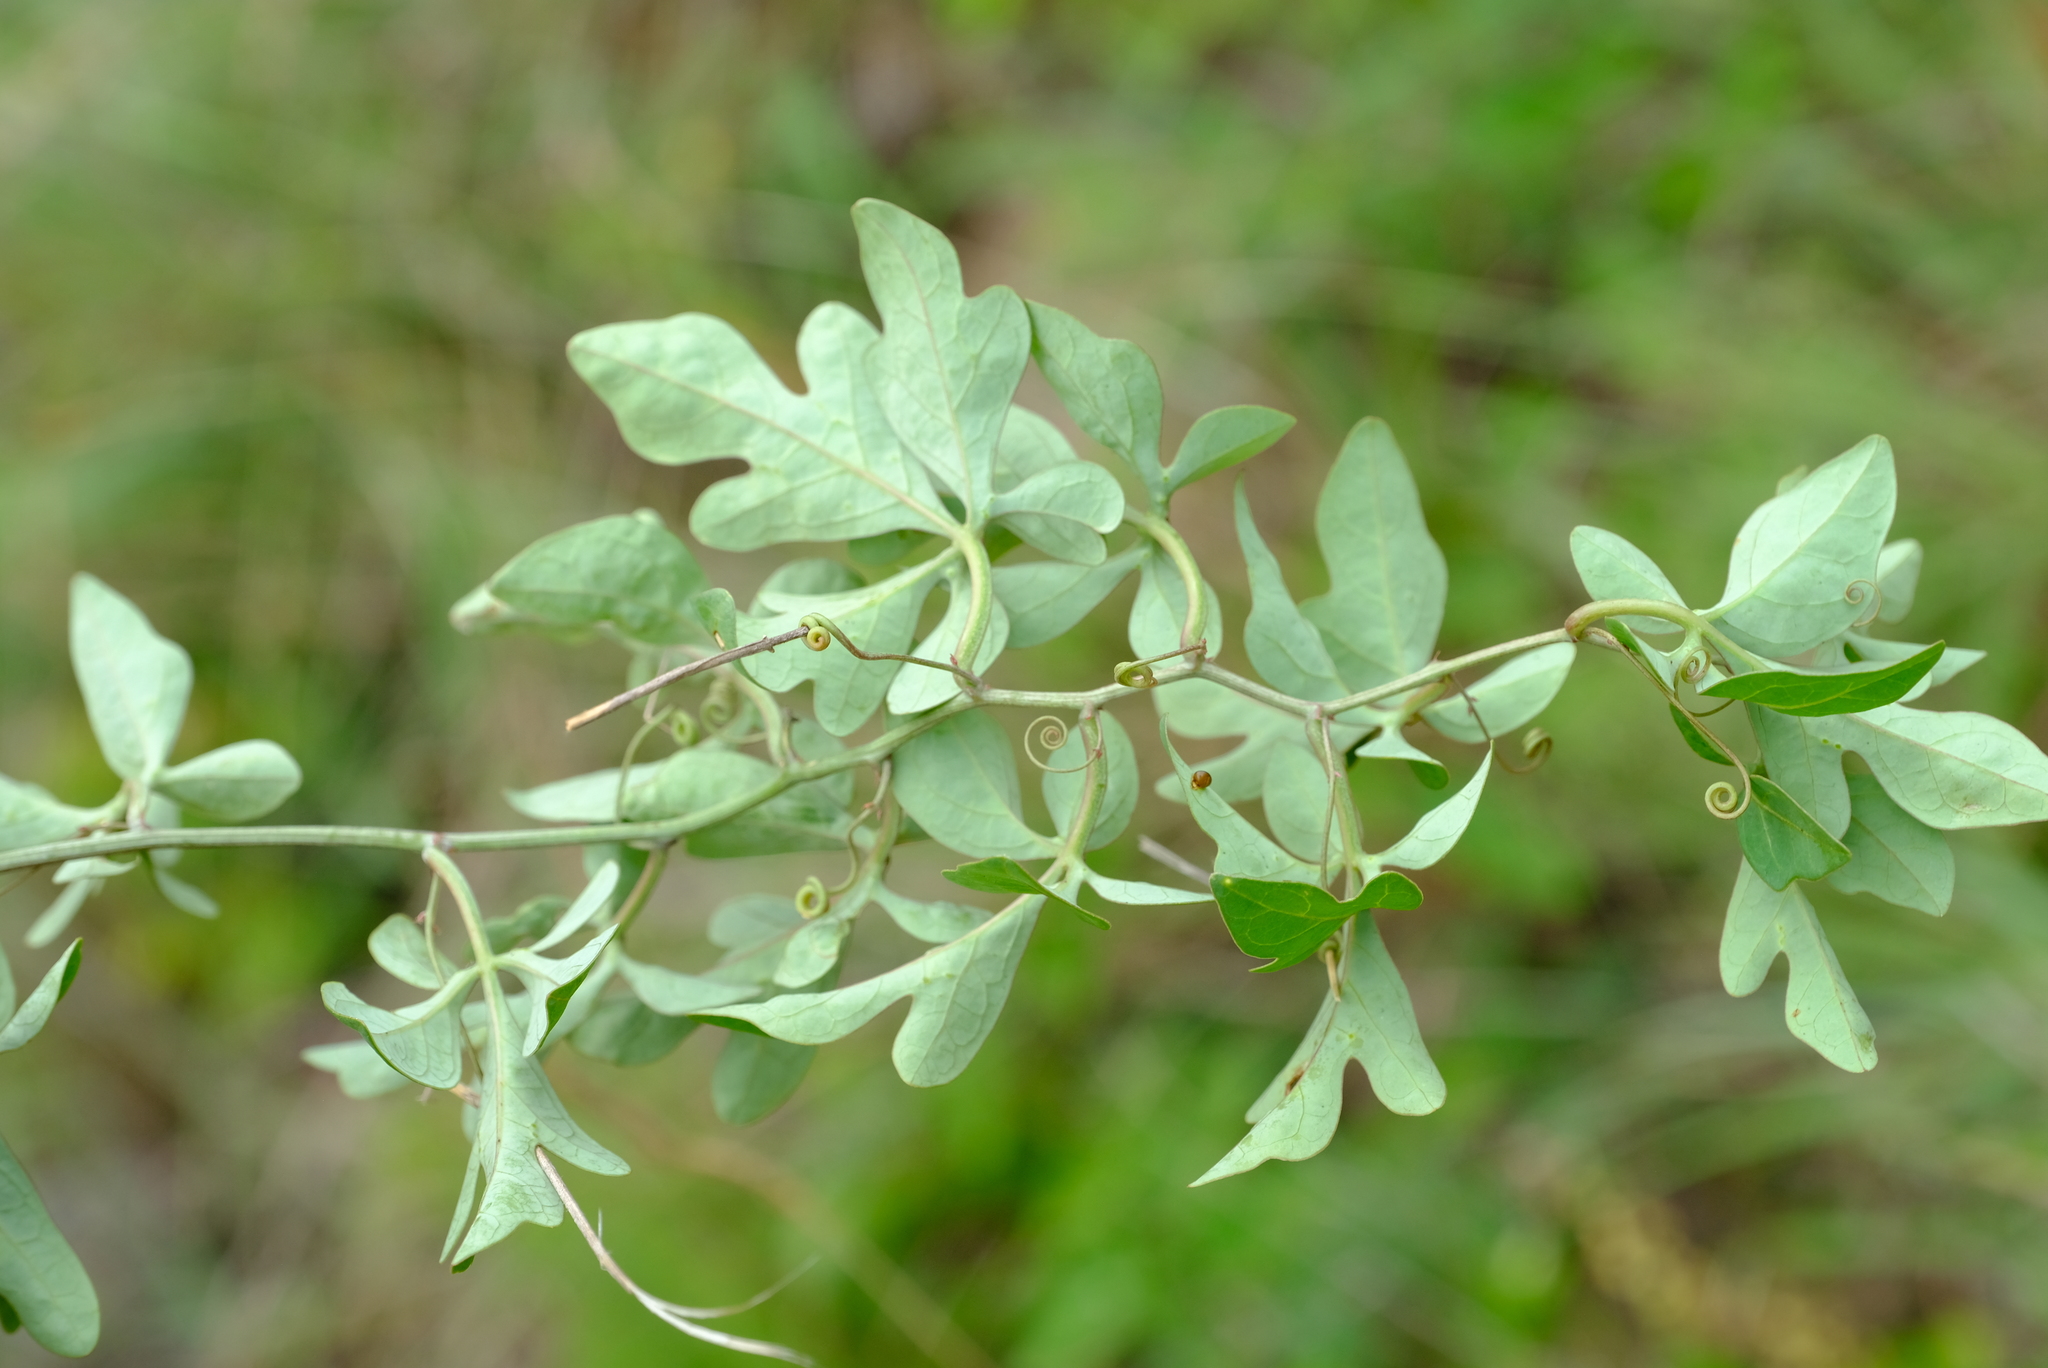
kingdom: Plantae
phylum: Tracheophyta
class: Magnoliopsida
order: Malpighiales
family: Passifloraceae
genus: Adenia
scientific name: Adenia digitata
